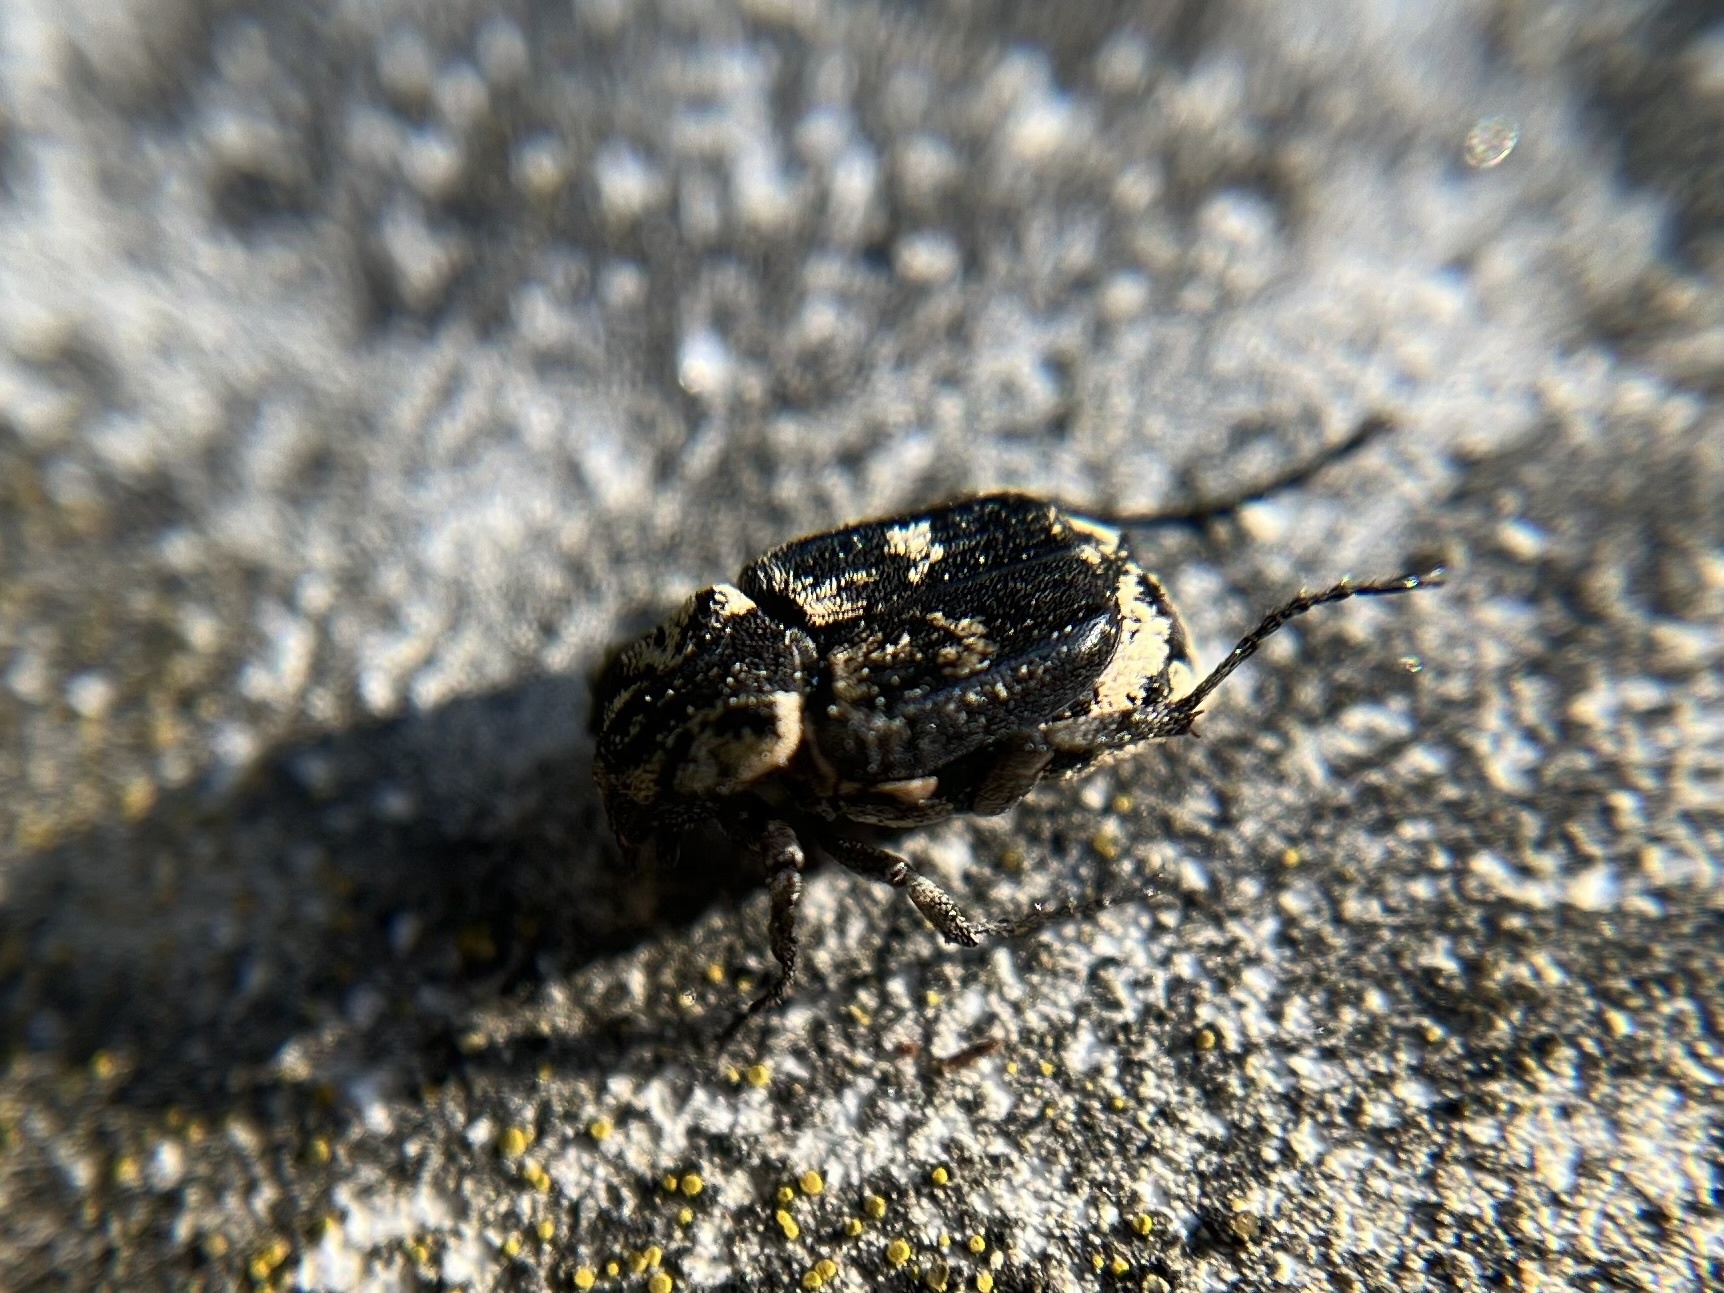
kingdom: Animalia
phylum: Arthropoda
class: Insecta
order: Coleoptera
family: Scarabaeidae
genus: Valgus
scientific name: Valgus hemipterus
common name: Bug flower chafer
